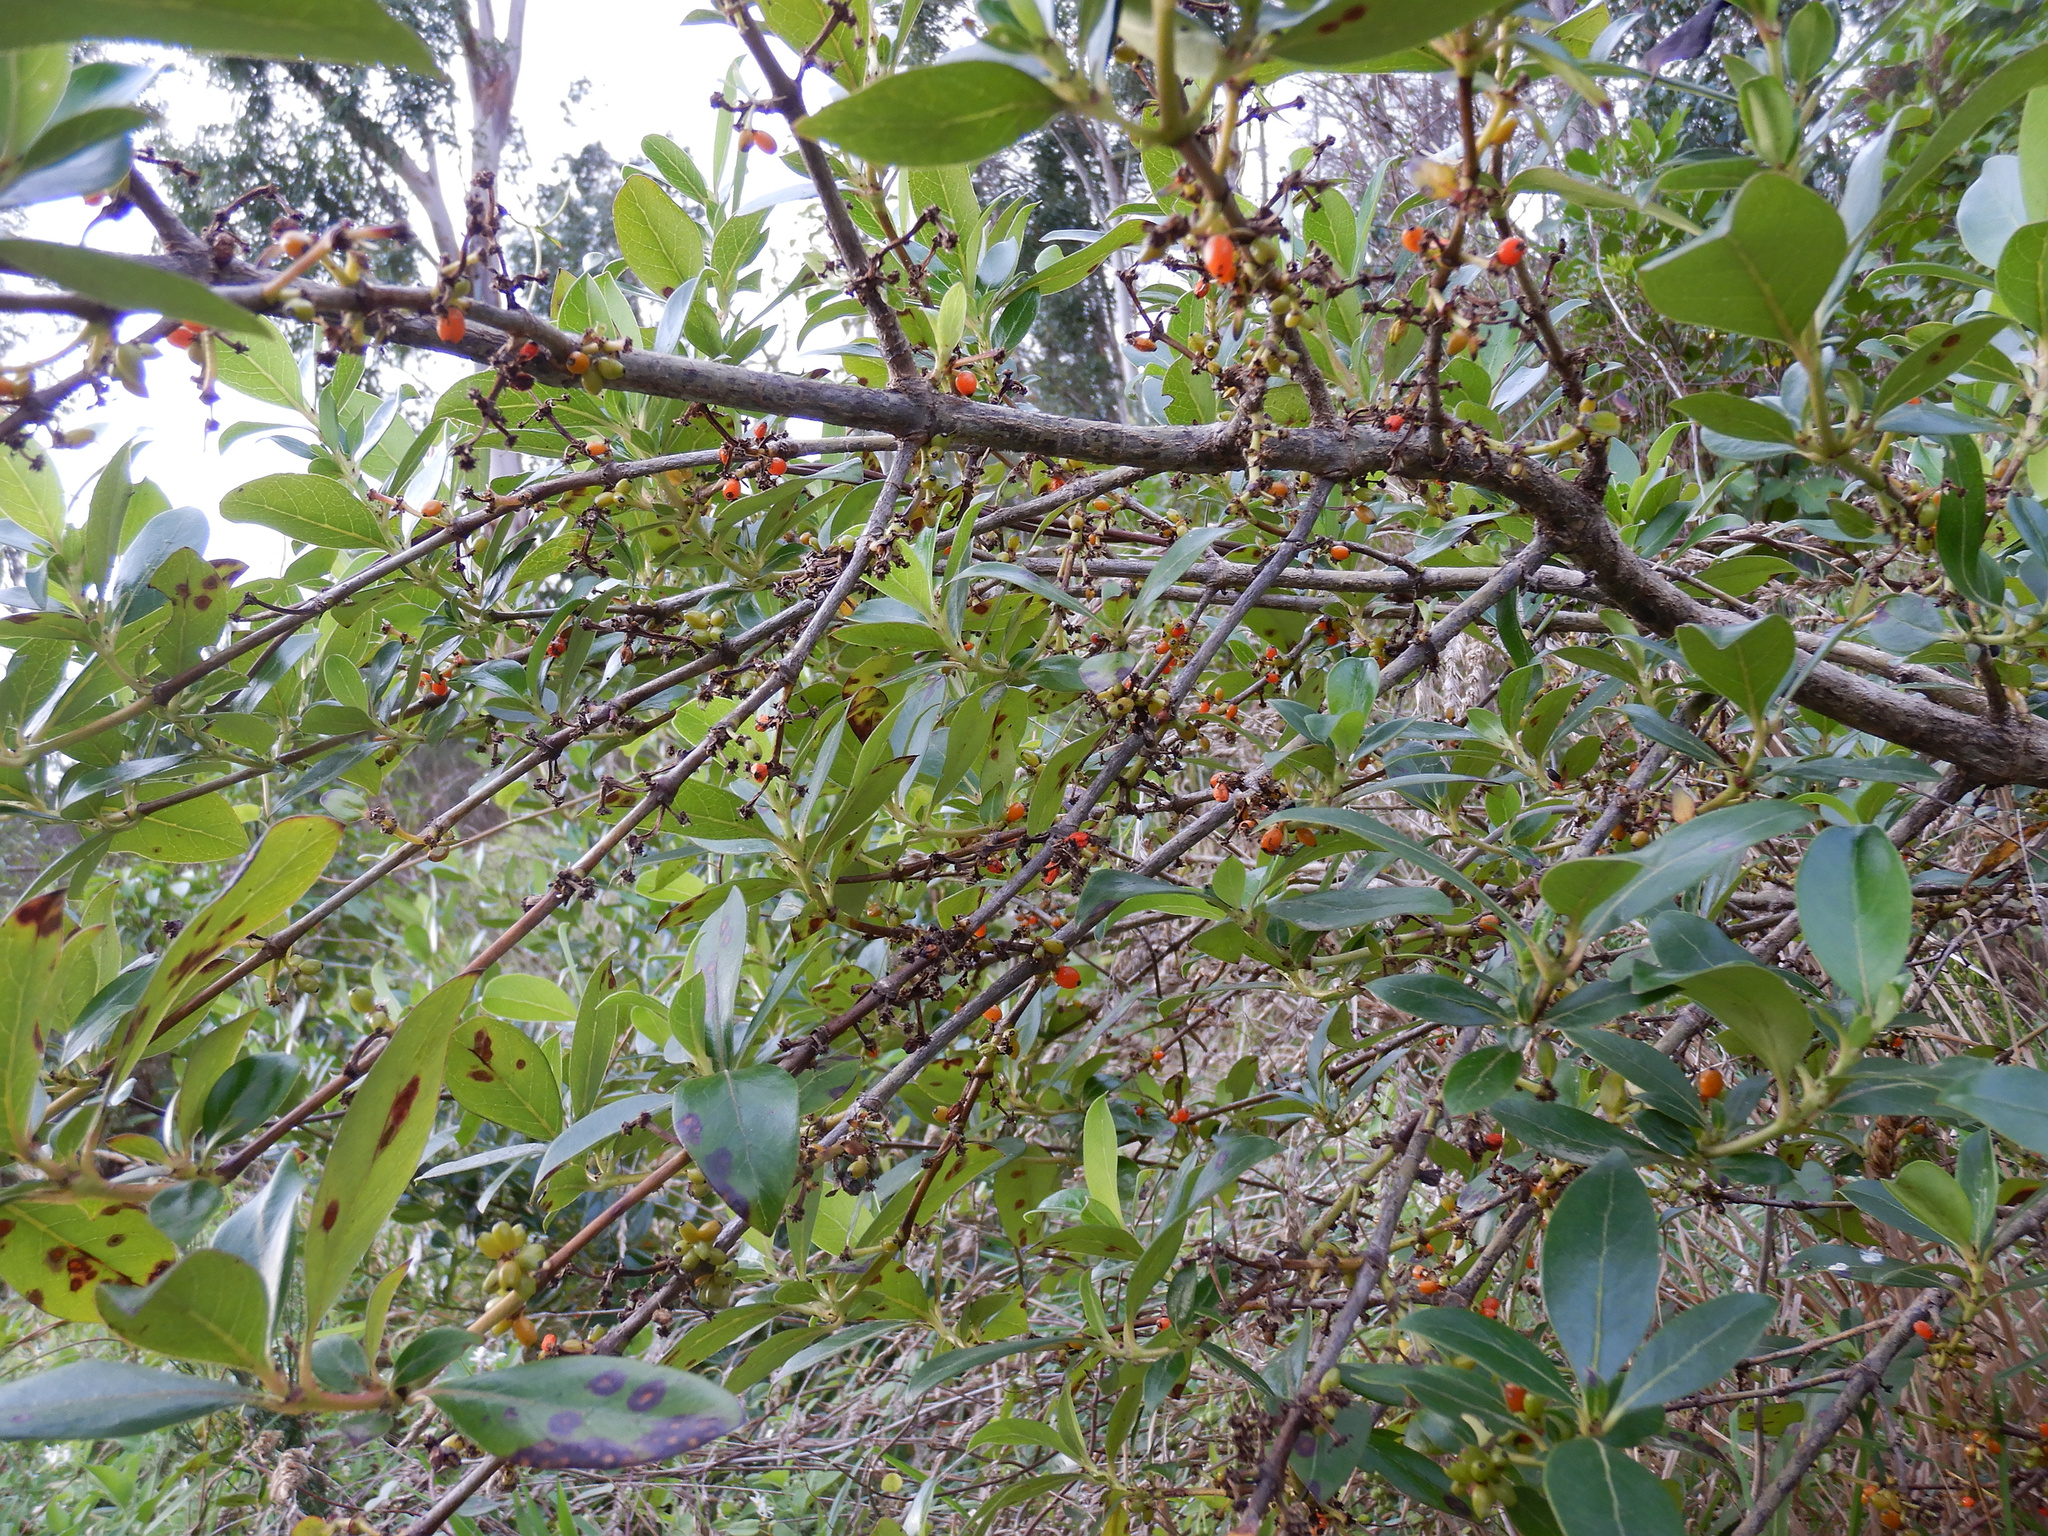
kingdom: Plantae
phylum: Tracheophyta
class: Magnoliopsida
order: Gentianales
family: Rubiaceae
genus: Coprosma
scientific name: Coprosma robusta
